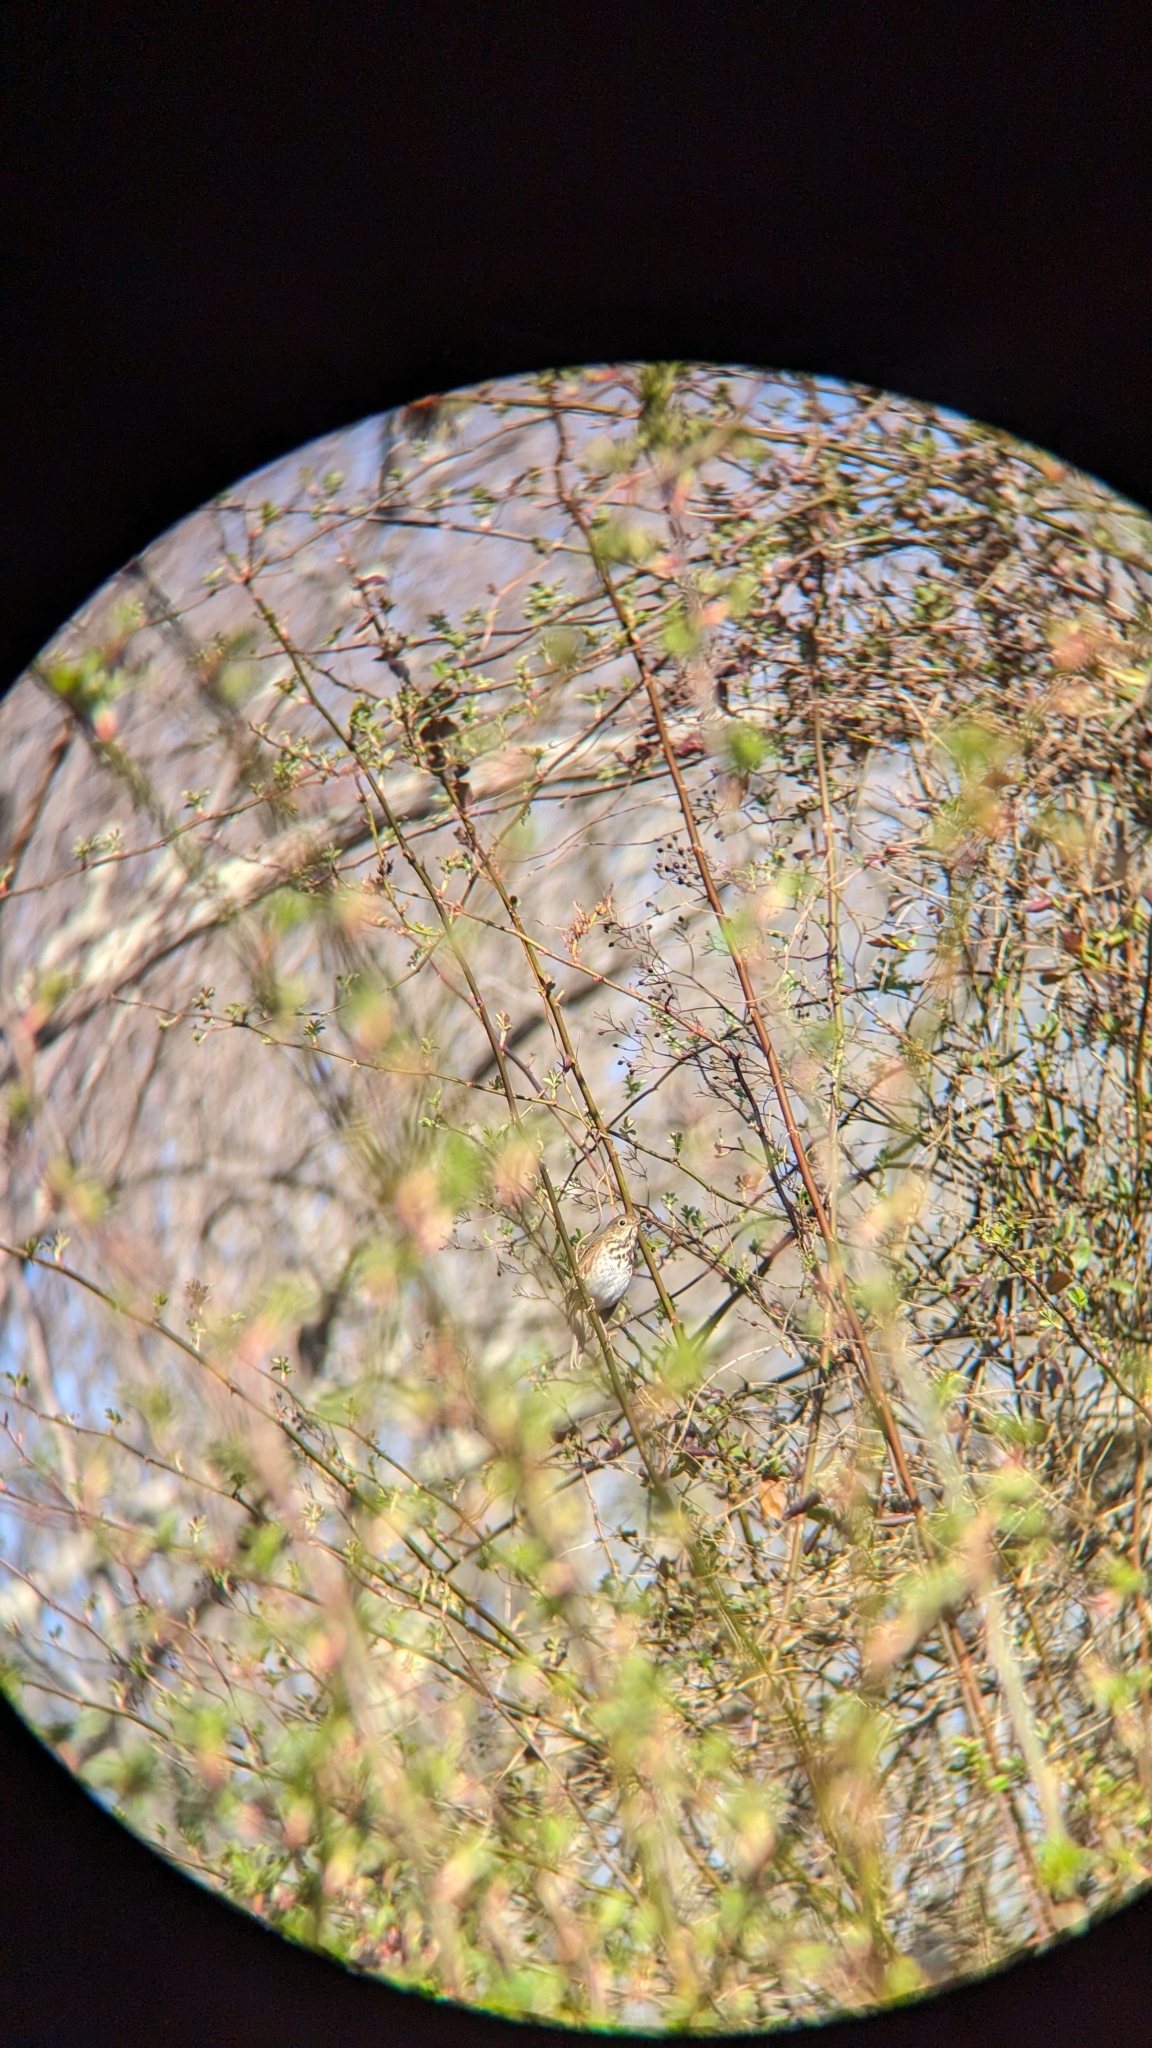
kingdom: Animalia
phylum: Chordata
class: Aves
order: Passeriformes
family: Turdidae
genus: Catharus
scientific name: Catharus guttatus
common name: Hermit thrush
